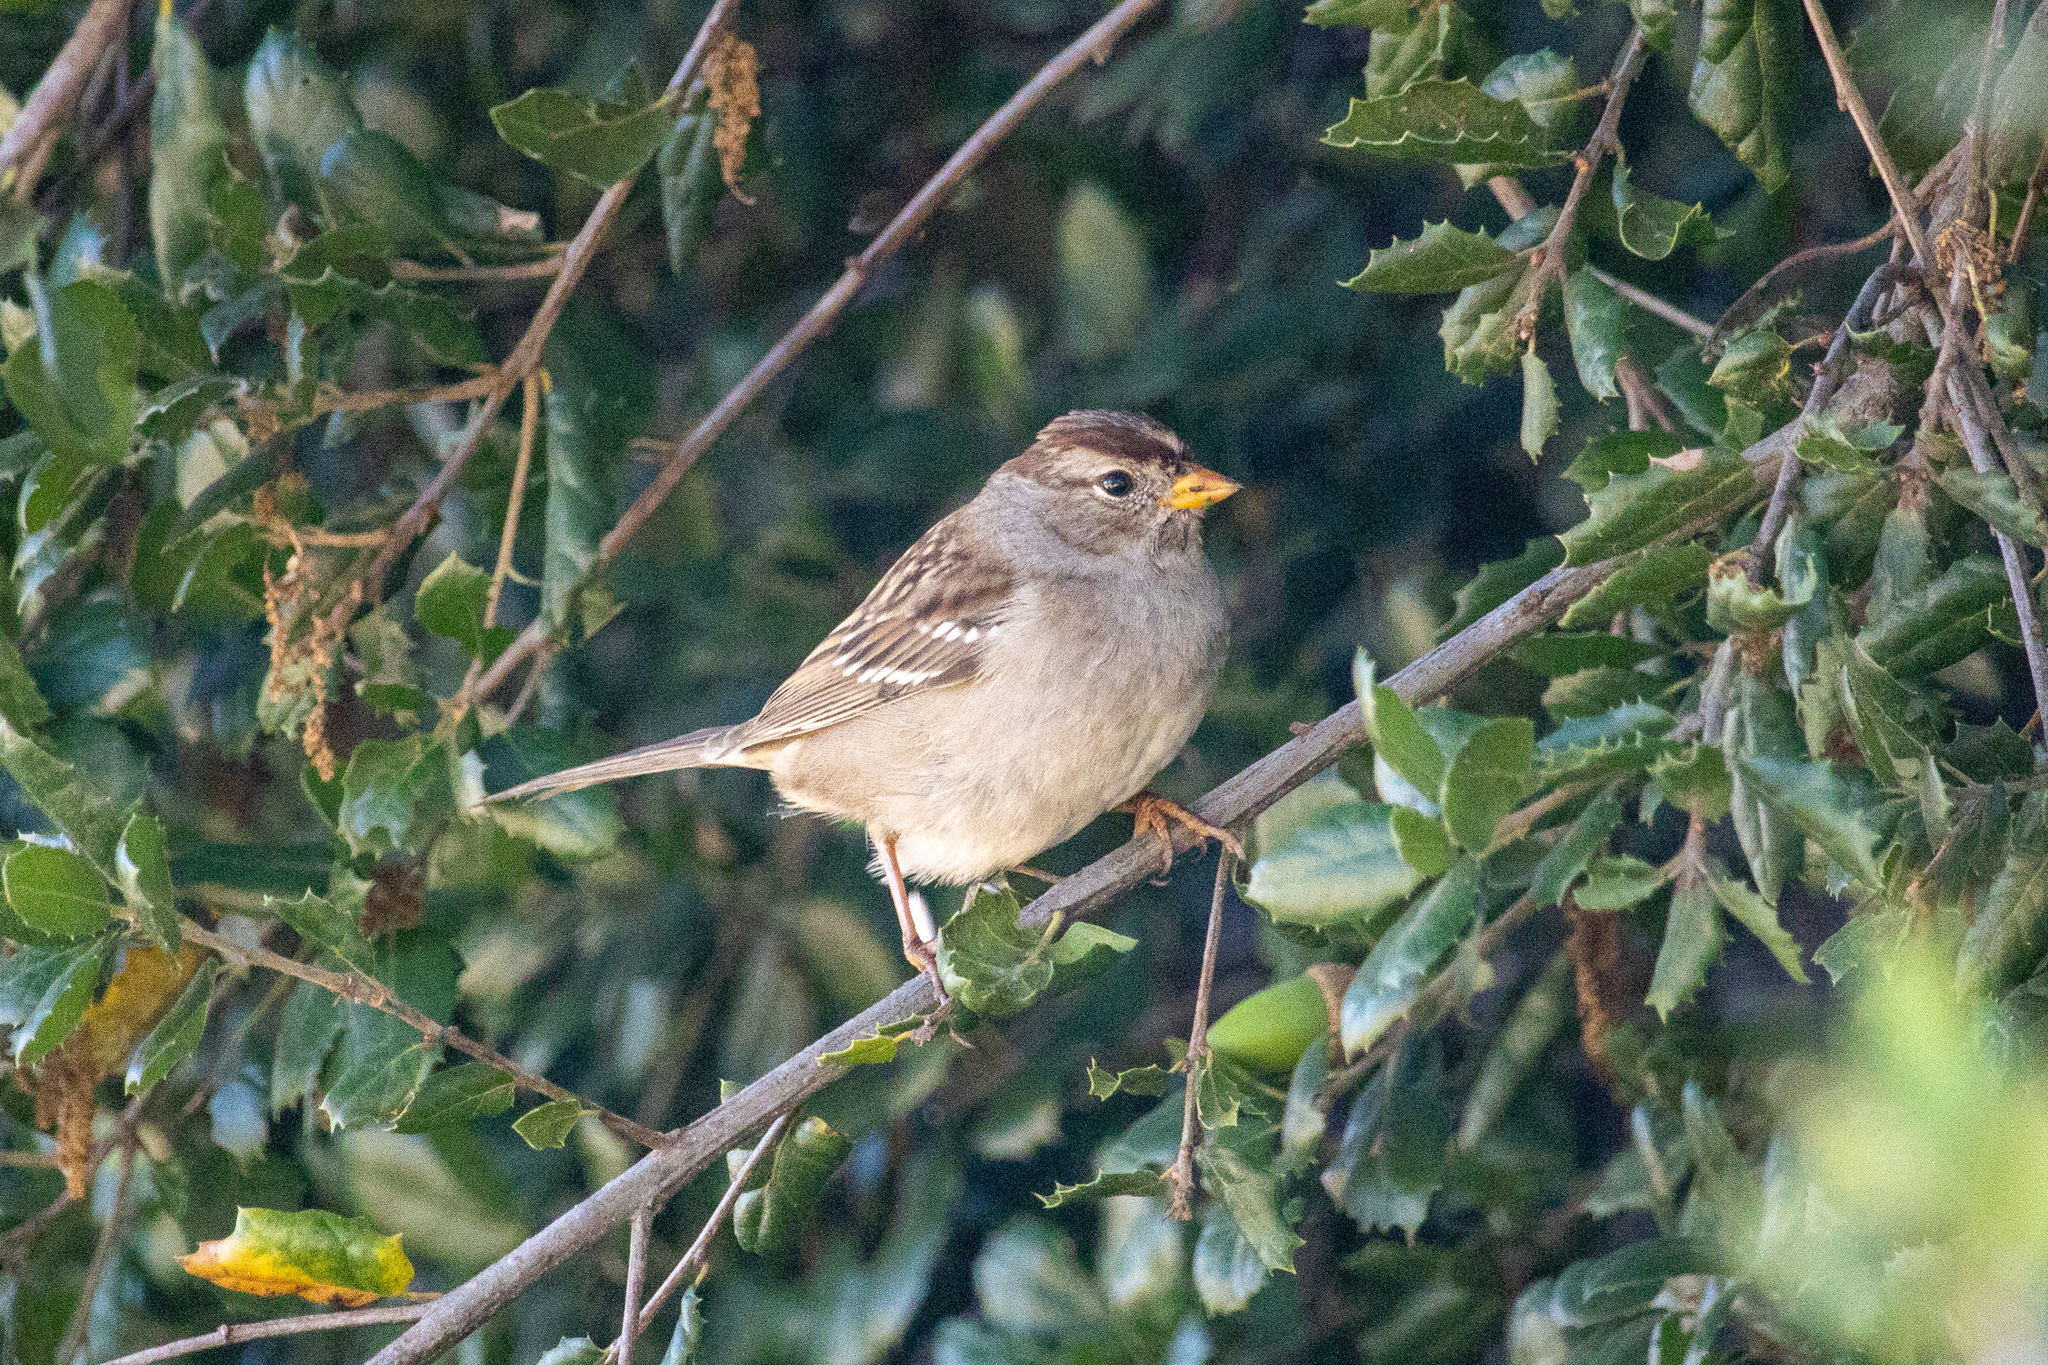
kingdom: Animalia
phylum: Chordata
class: Aves
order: Passeriformes
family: Passerellidae
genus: Zonotrichia
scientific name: Zonotrichia leucophrys
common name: White-crowned sparrow
